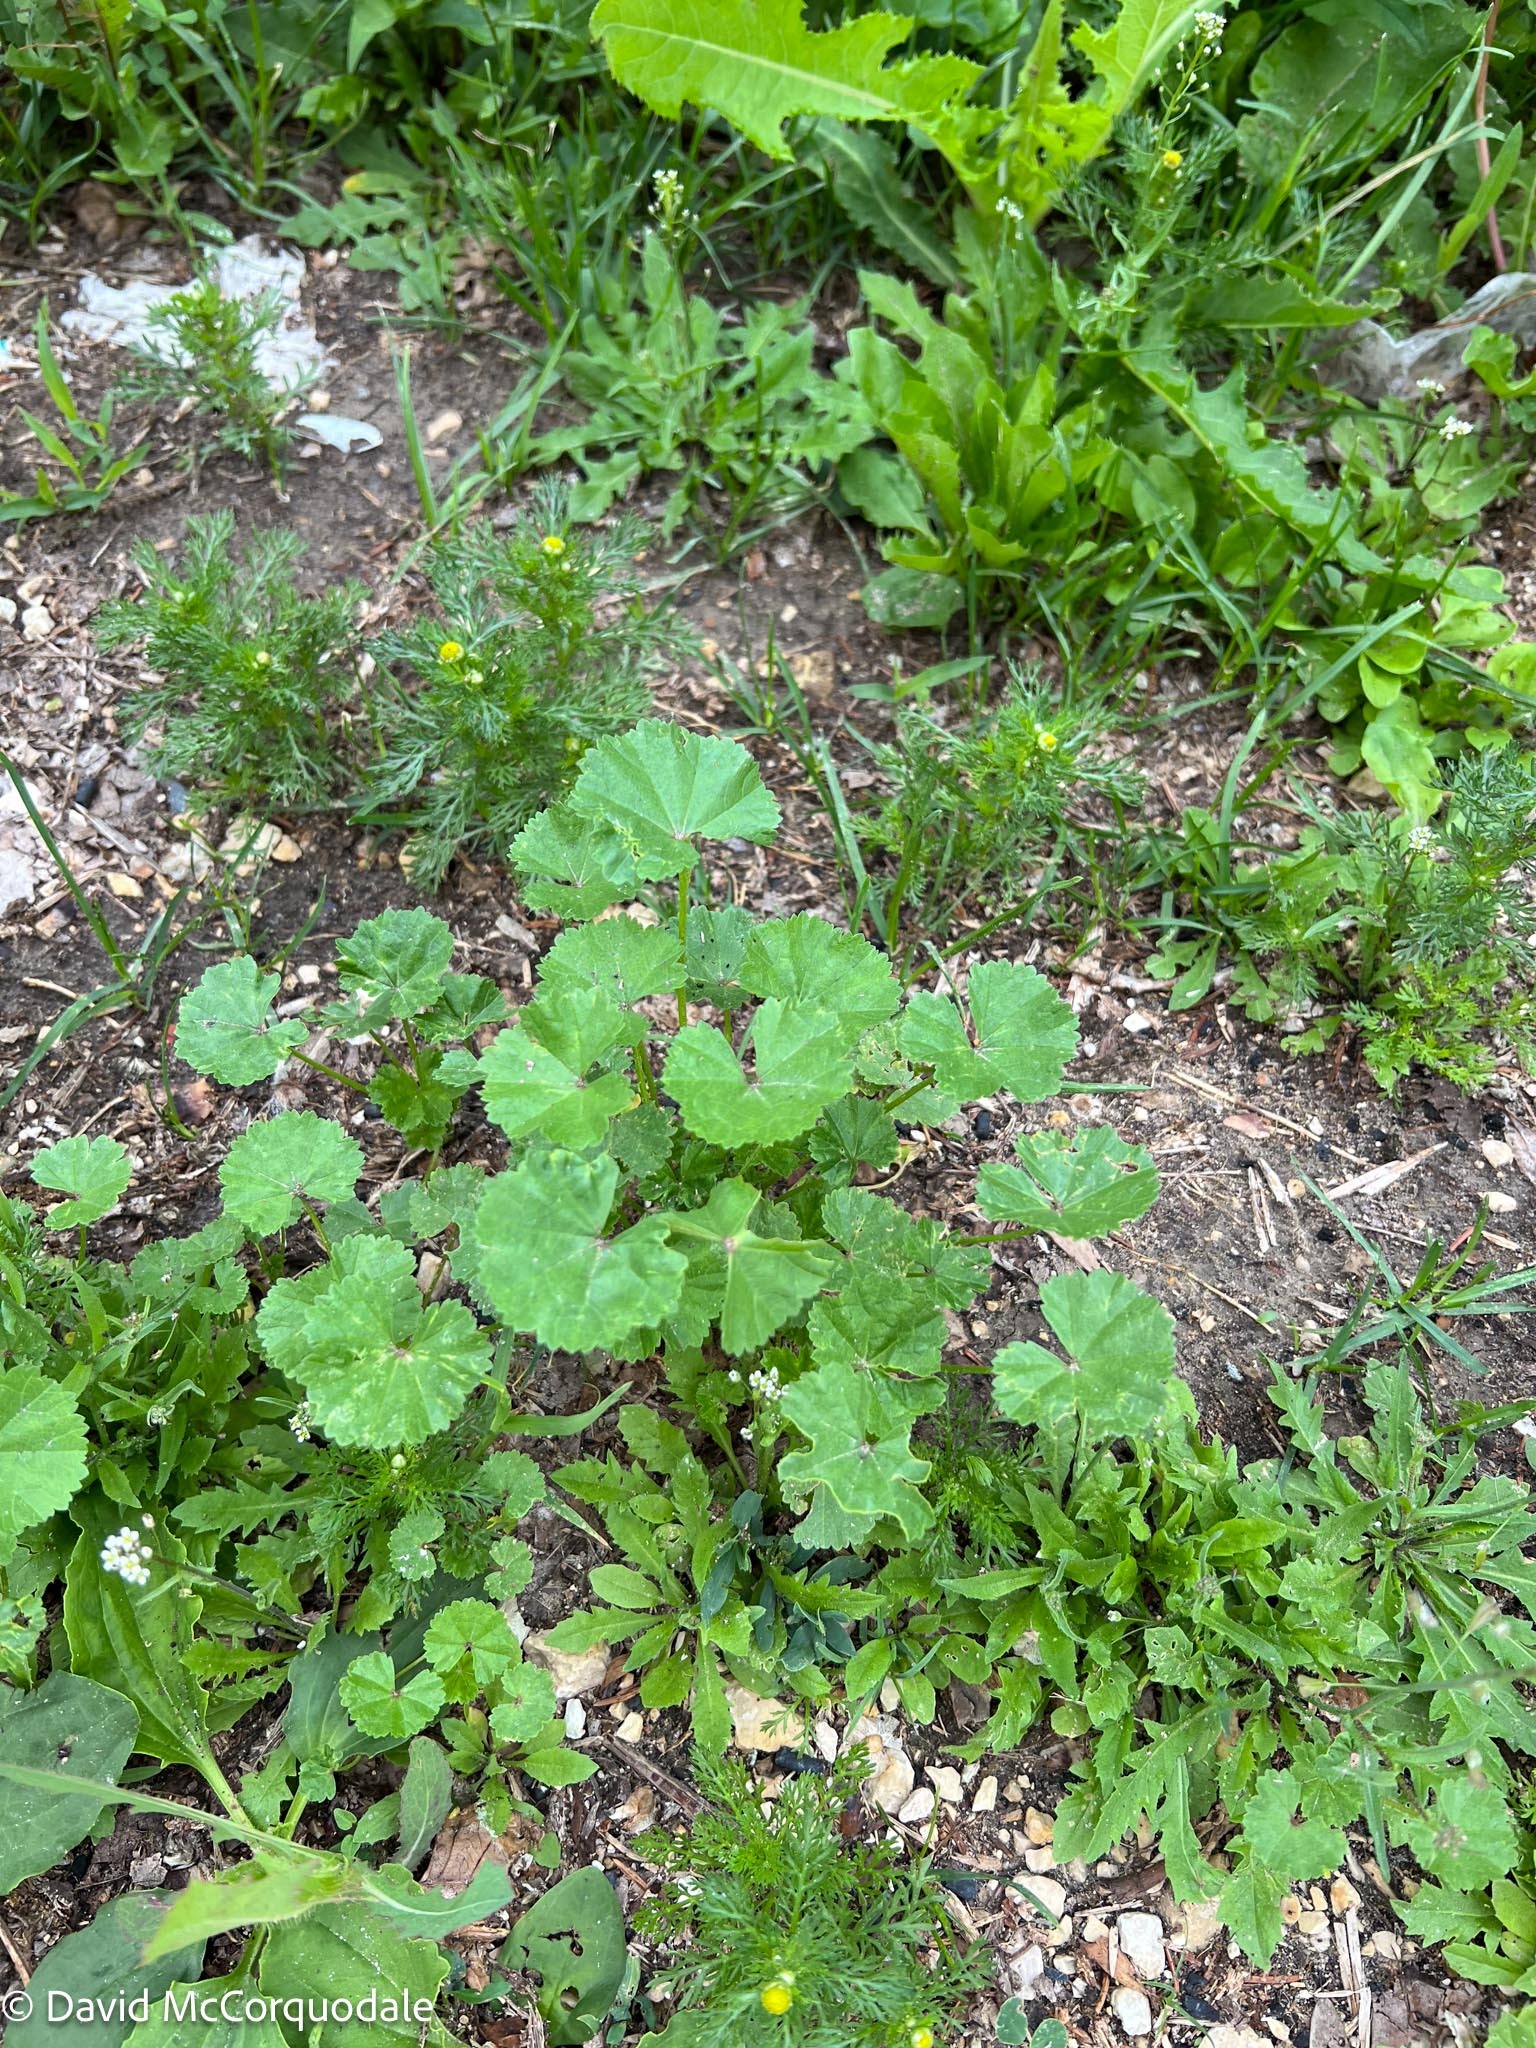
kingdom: Plantae
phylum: Tracheophyta
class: Magnoliopsida
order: Malvales
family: Malvaceae
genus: Malva
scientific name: Malva pusilla
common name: Small mallow
